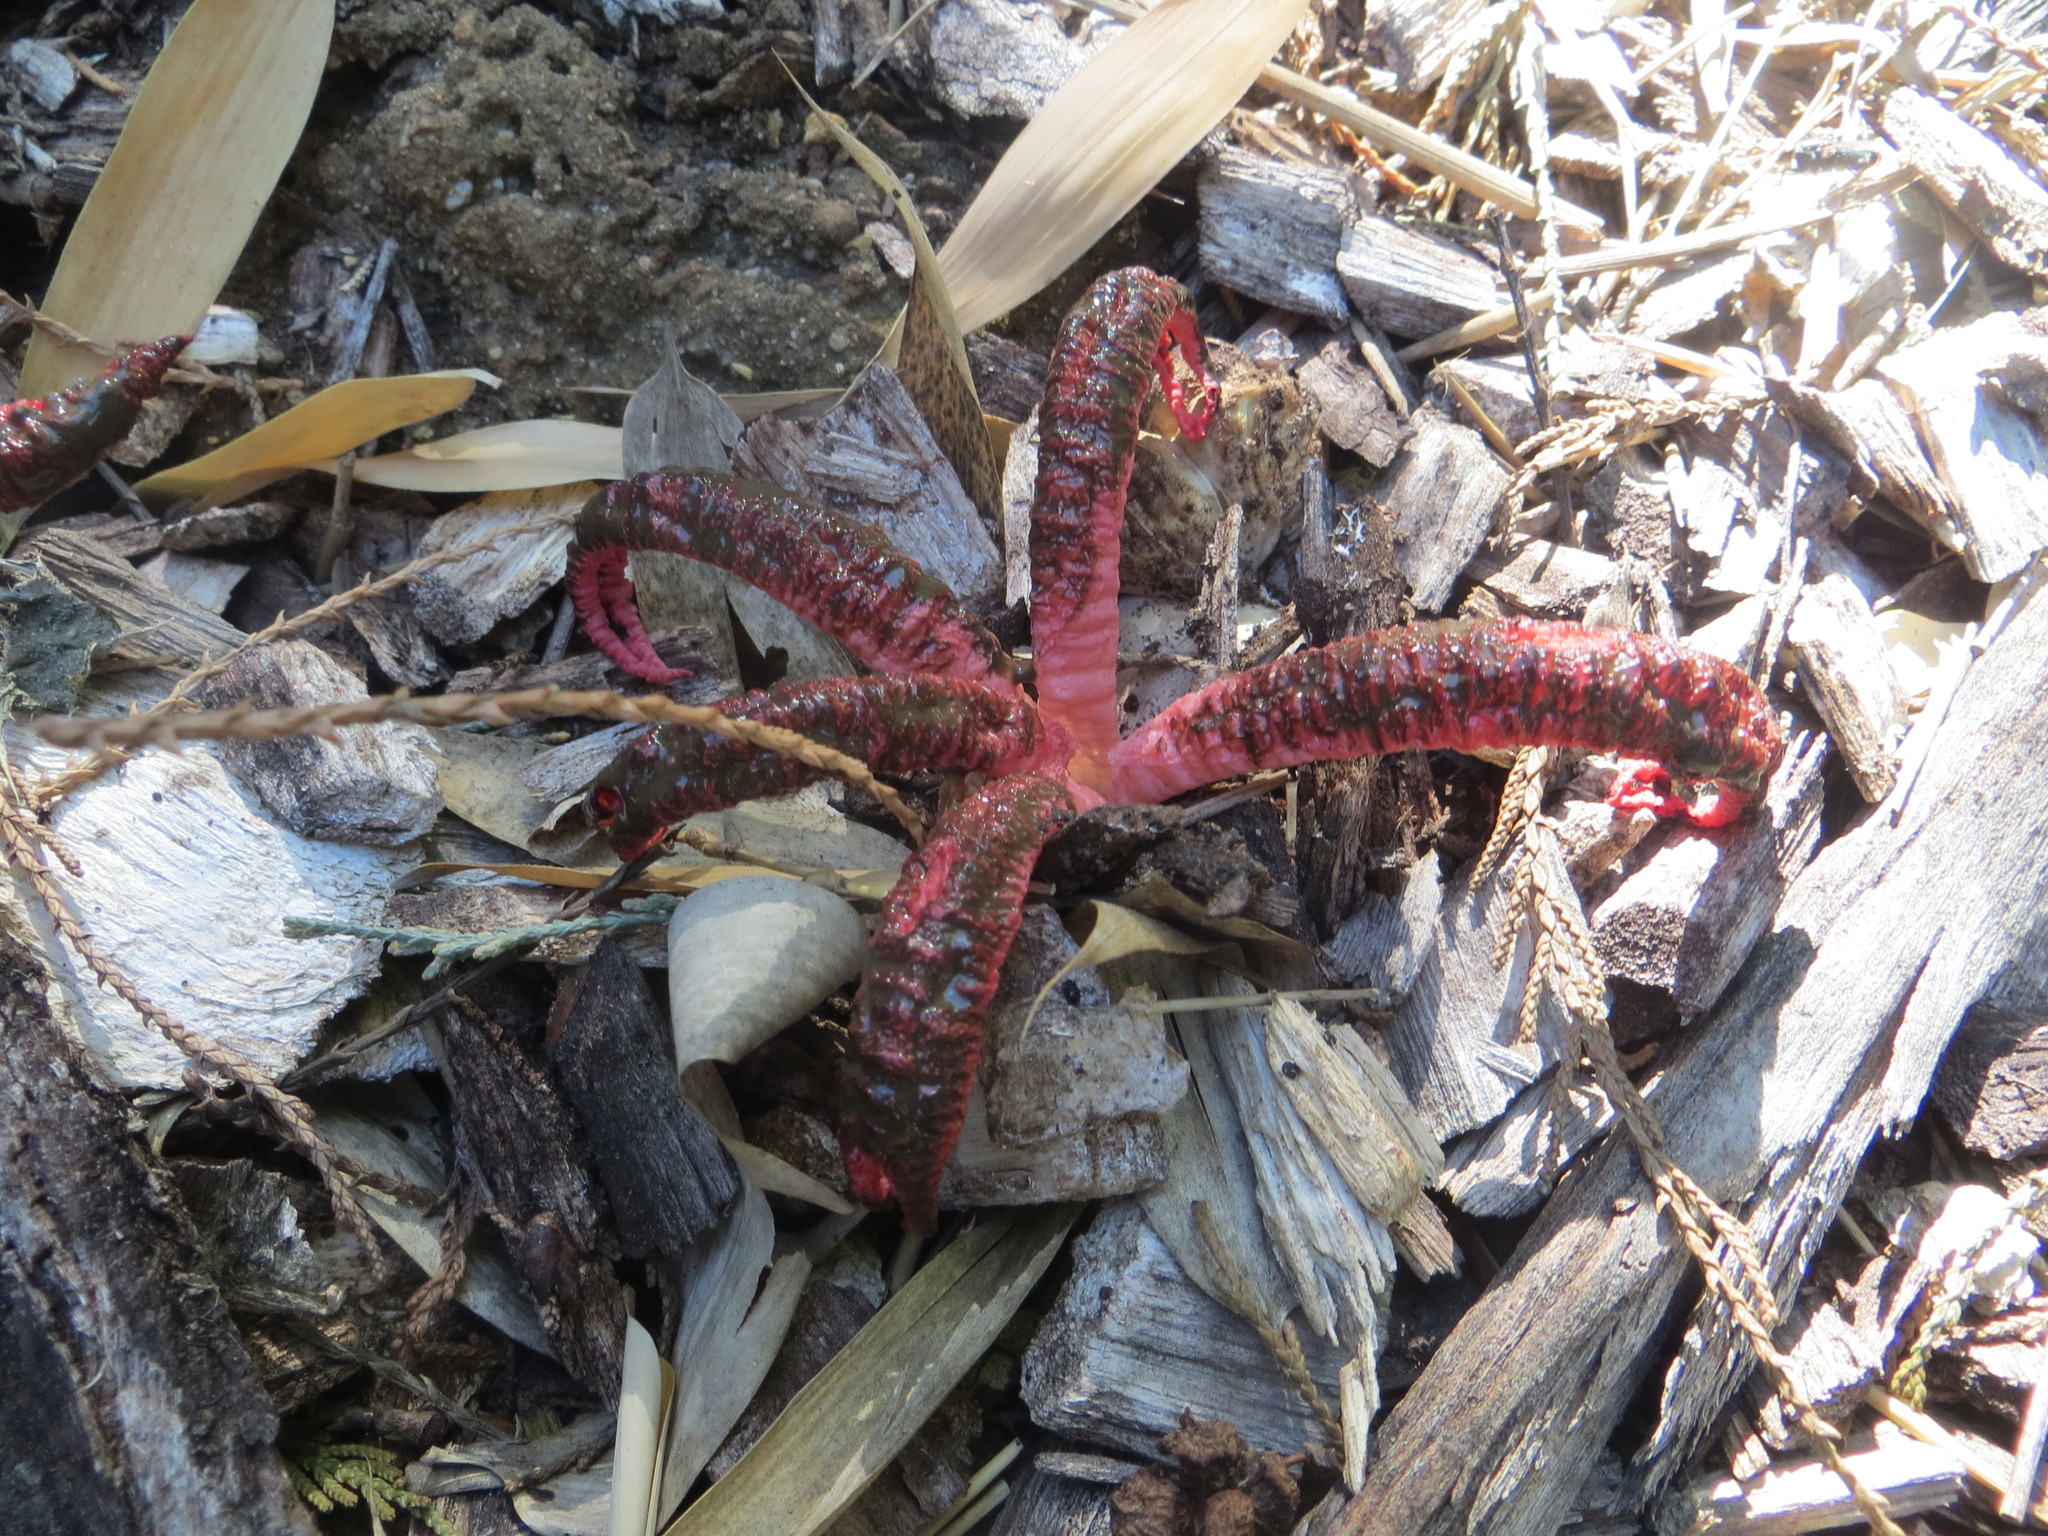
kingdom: Fungi
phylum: Basidiomycota
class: Agaricomycetes
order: Phallales
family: Phallaceae
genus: Clathrus
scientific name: Clathrus archeri
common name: Devil's fingers
